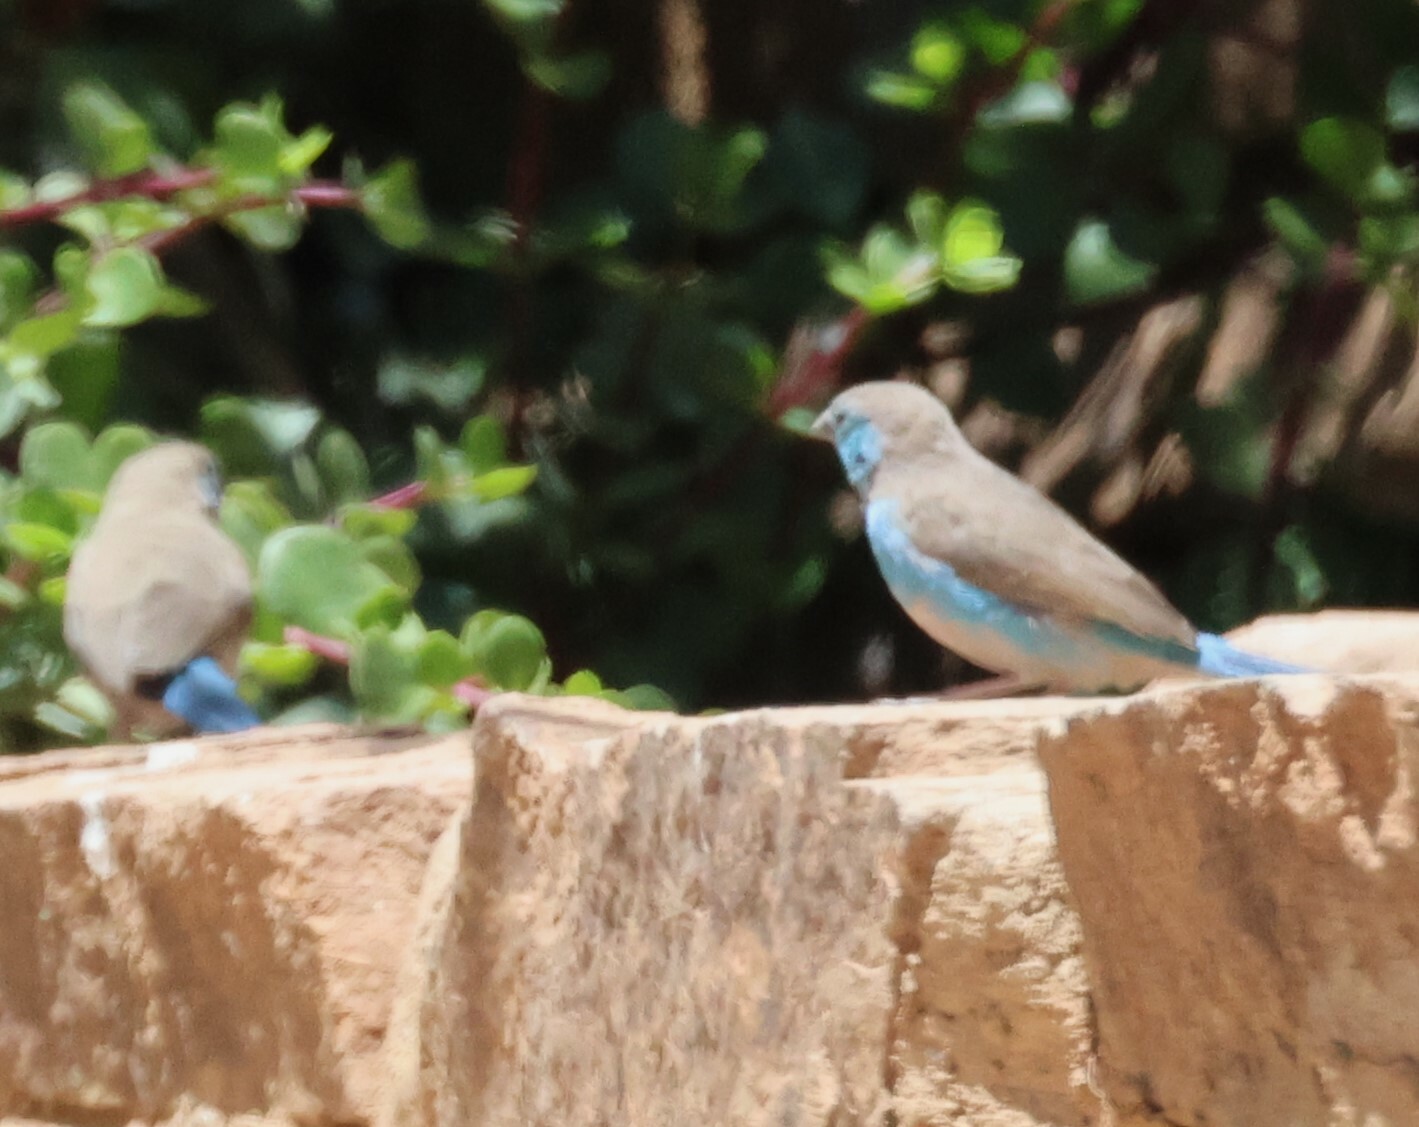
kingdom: Animalia
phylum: Chordata
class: Aves
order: Passeriformes
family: Estrildidae
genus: Uraeginthus
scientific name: Uraeginthus angolensis
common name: Blue waxbill
